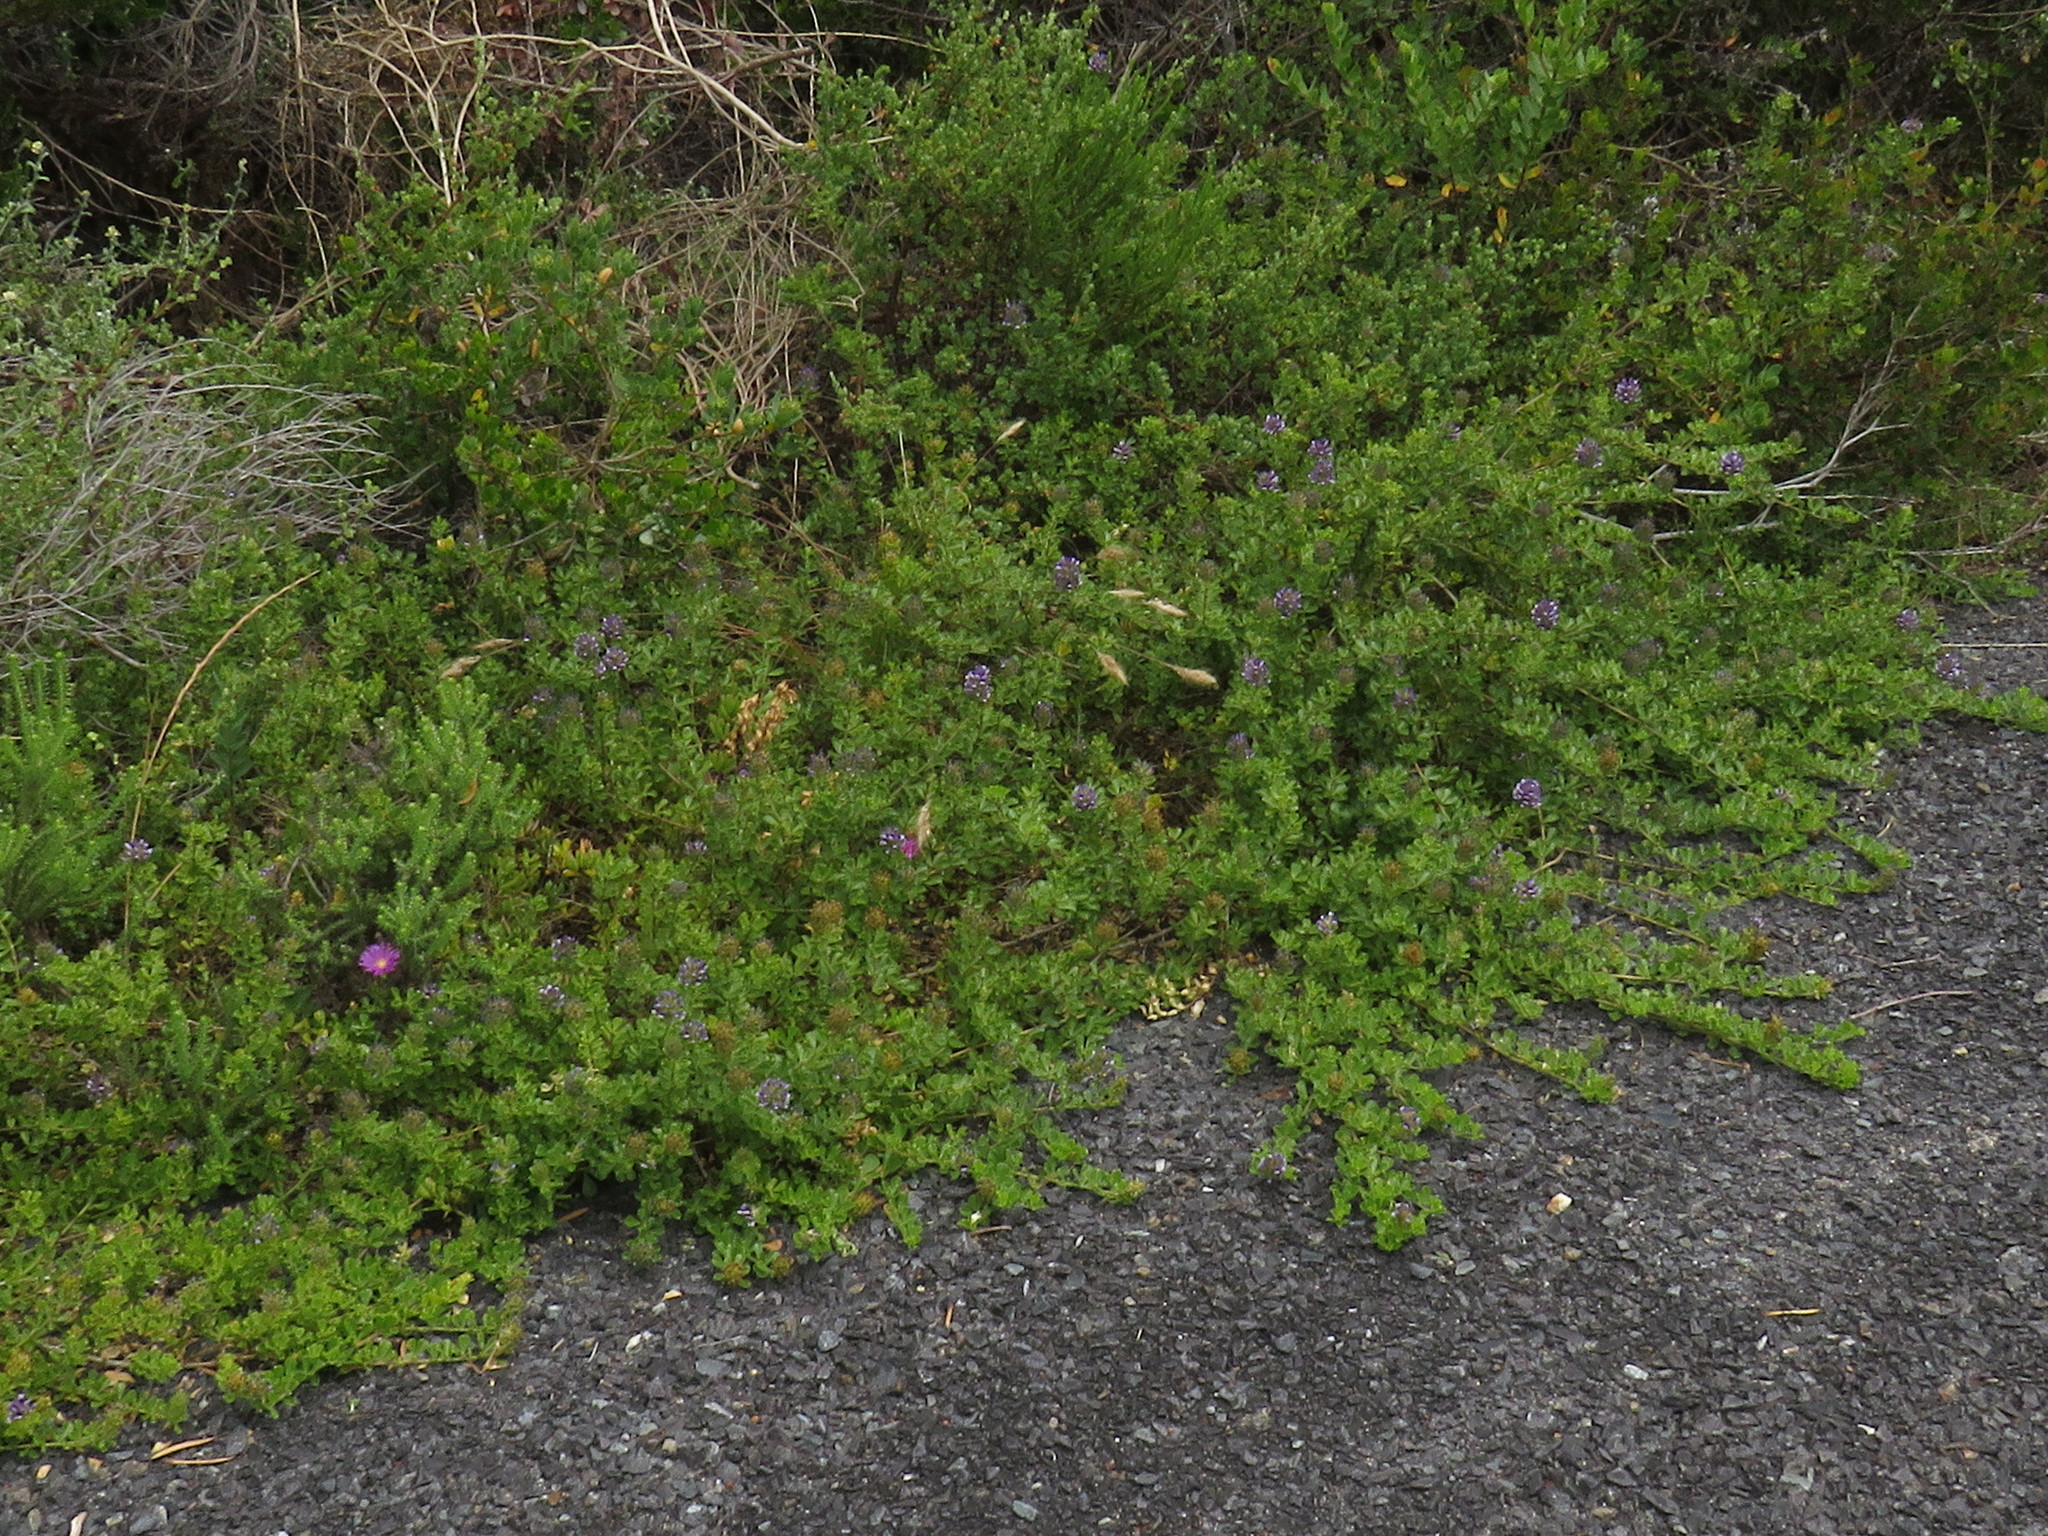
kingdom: Plantae
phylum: Tracheophyta
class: Magnoliopsida
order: Fabales
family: Fabaceae
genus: Psoralea
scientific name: Psoralea fruticans
